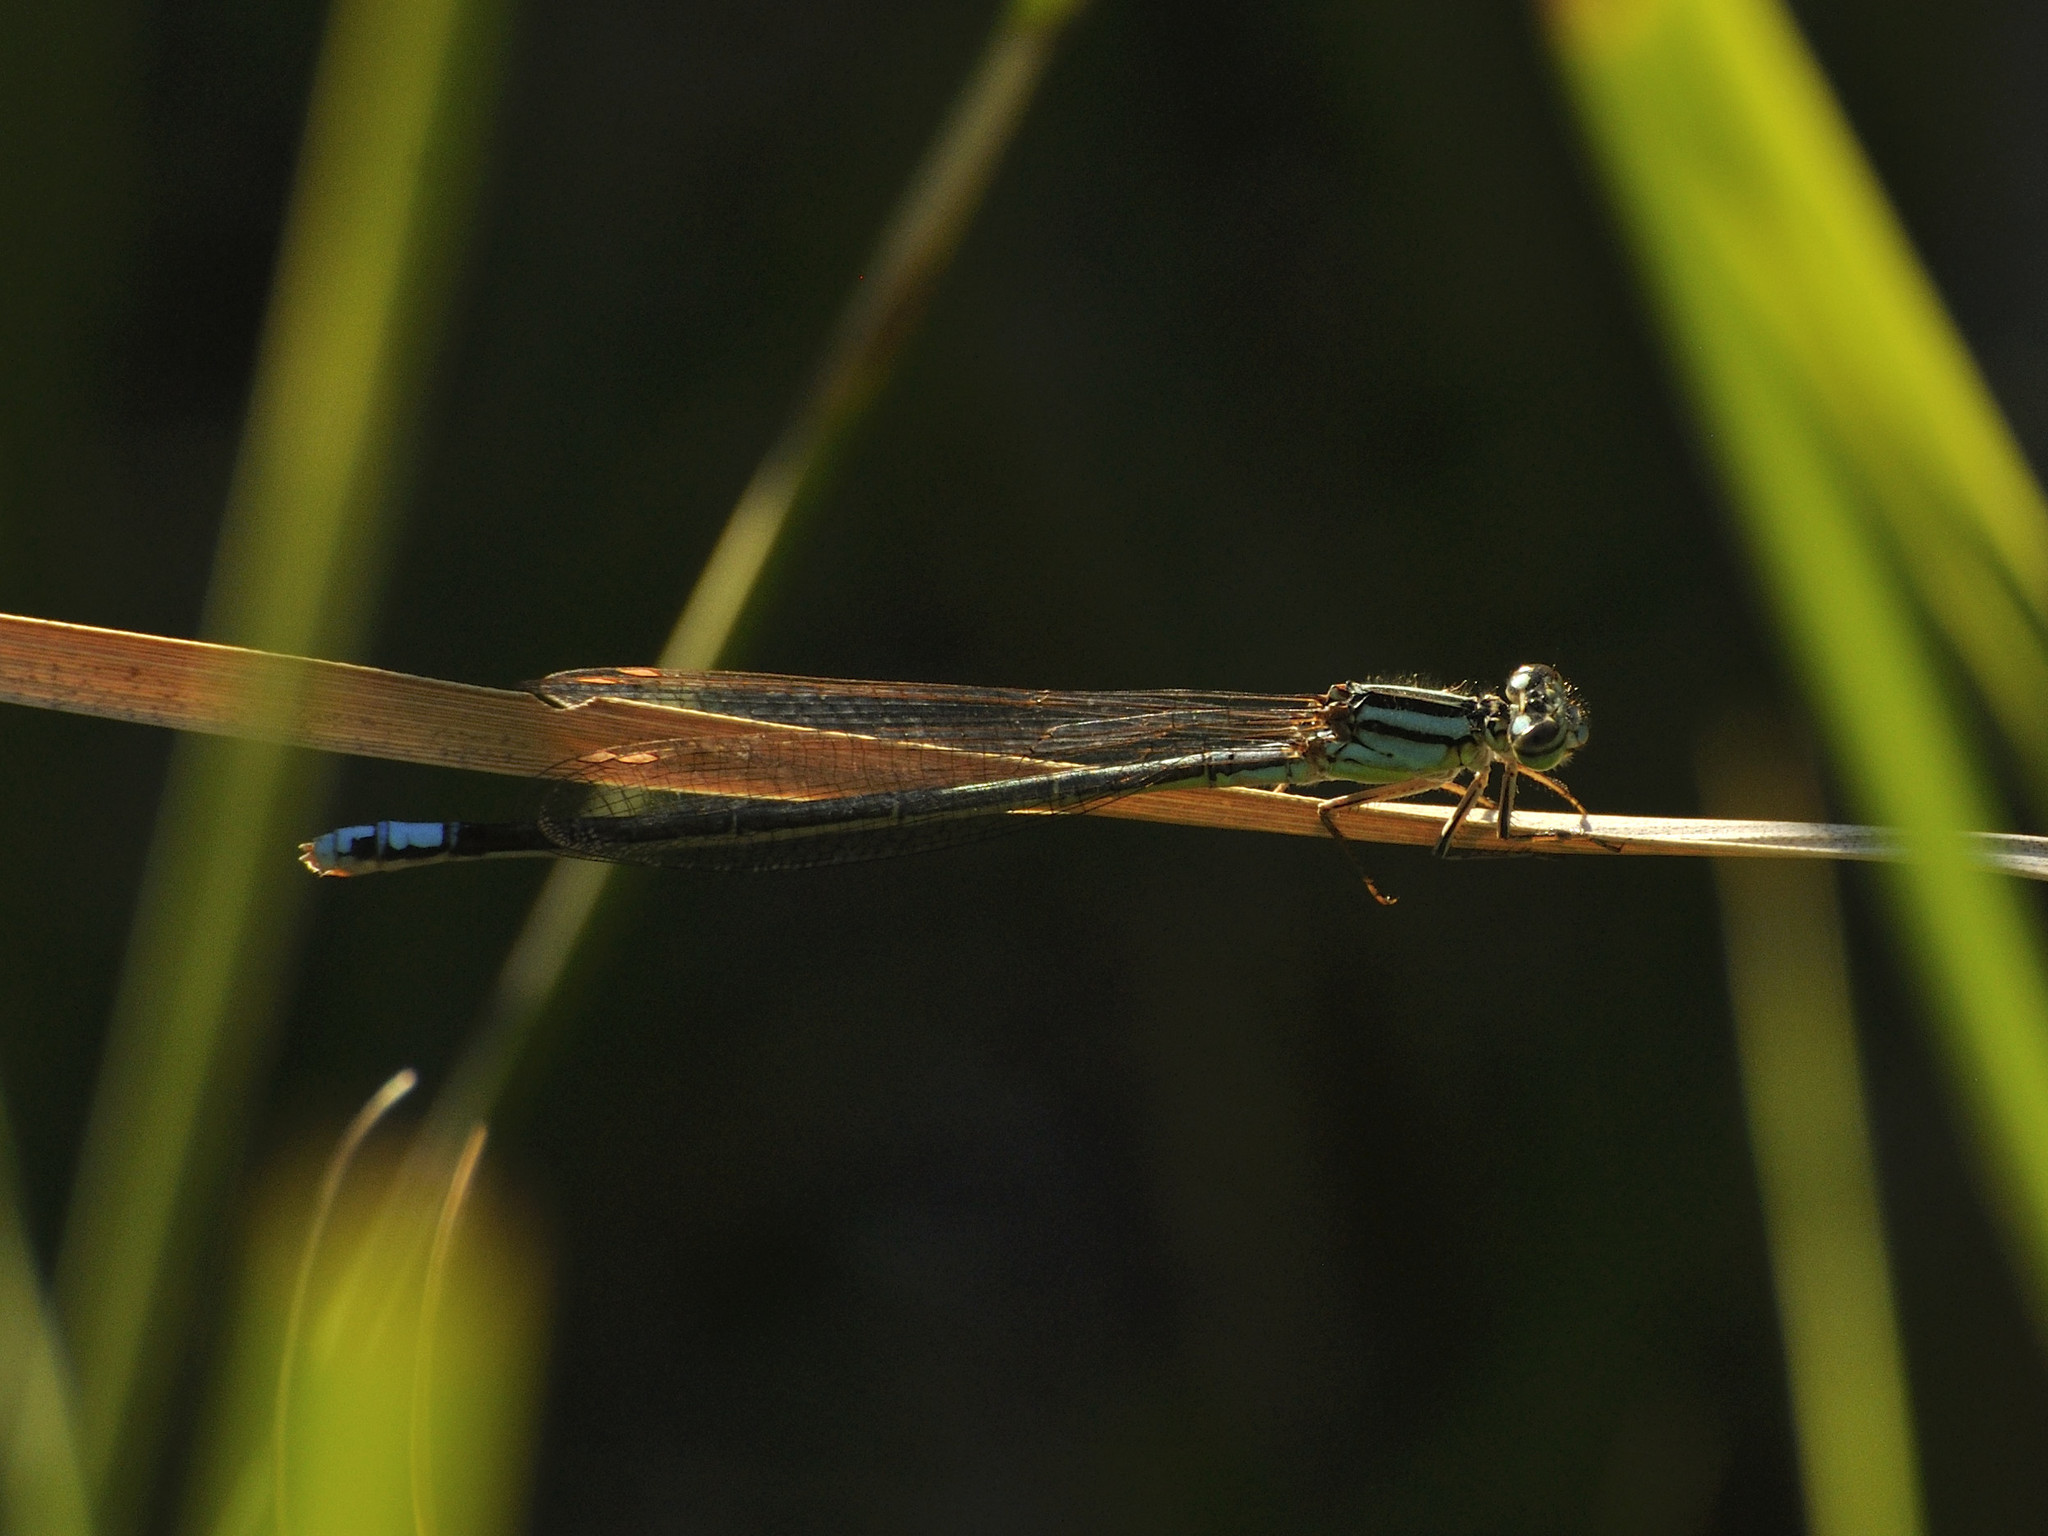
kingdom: Animalia
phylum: Arthropoda
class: Insecta
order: Odonata
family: Coenagrionidae
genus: Pseudagrion
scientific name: Pseudagrion spernatum
